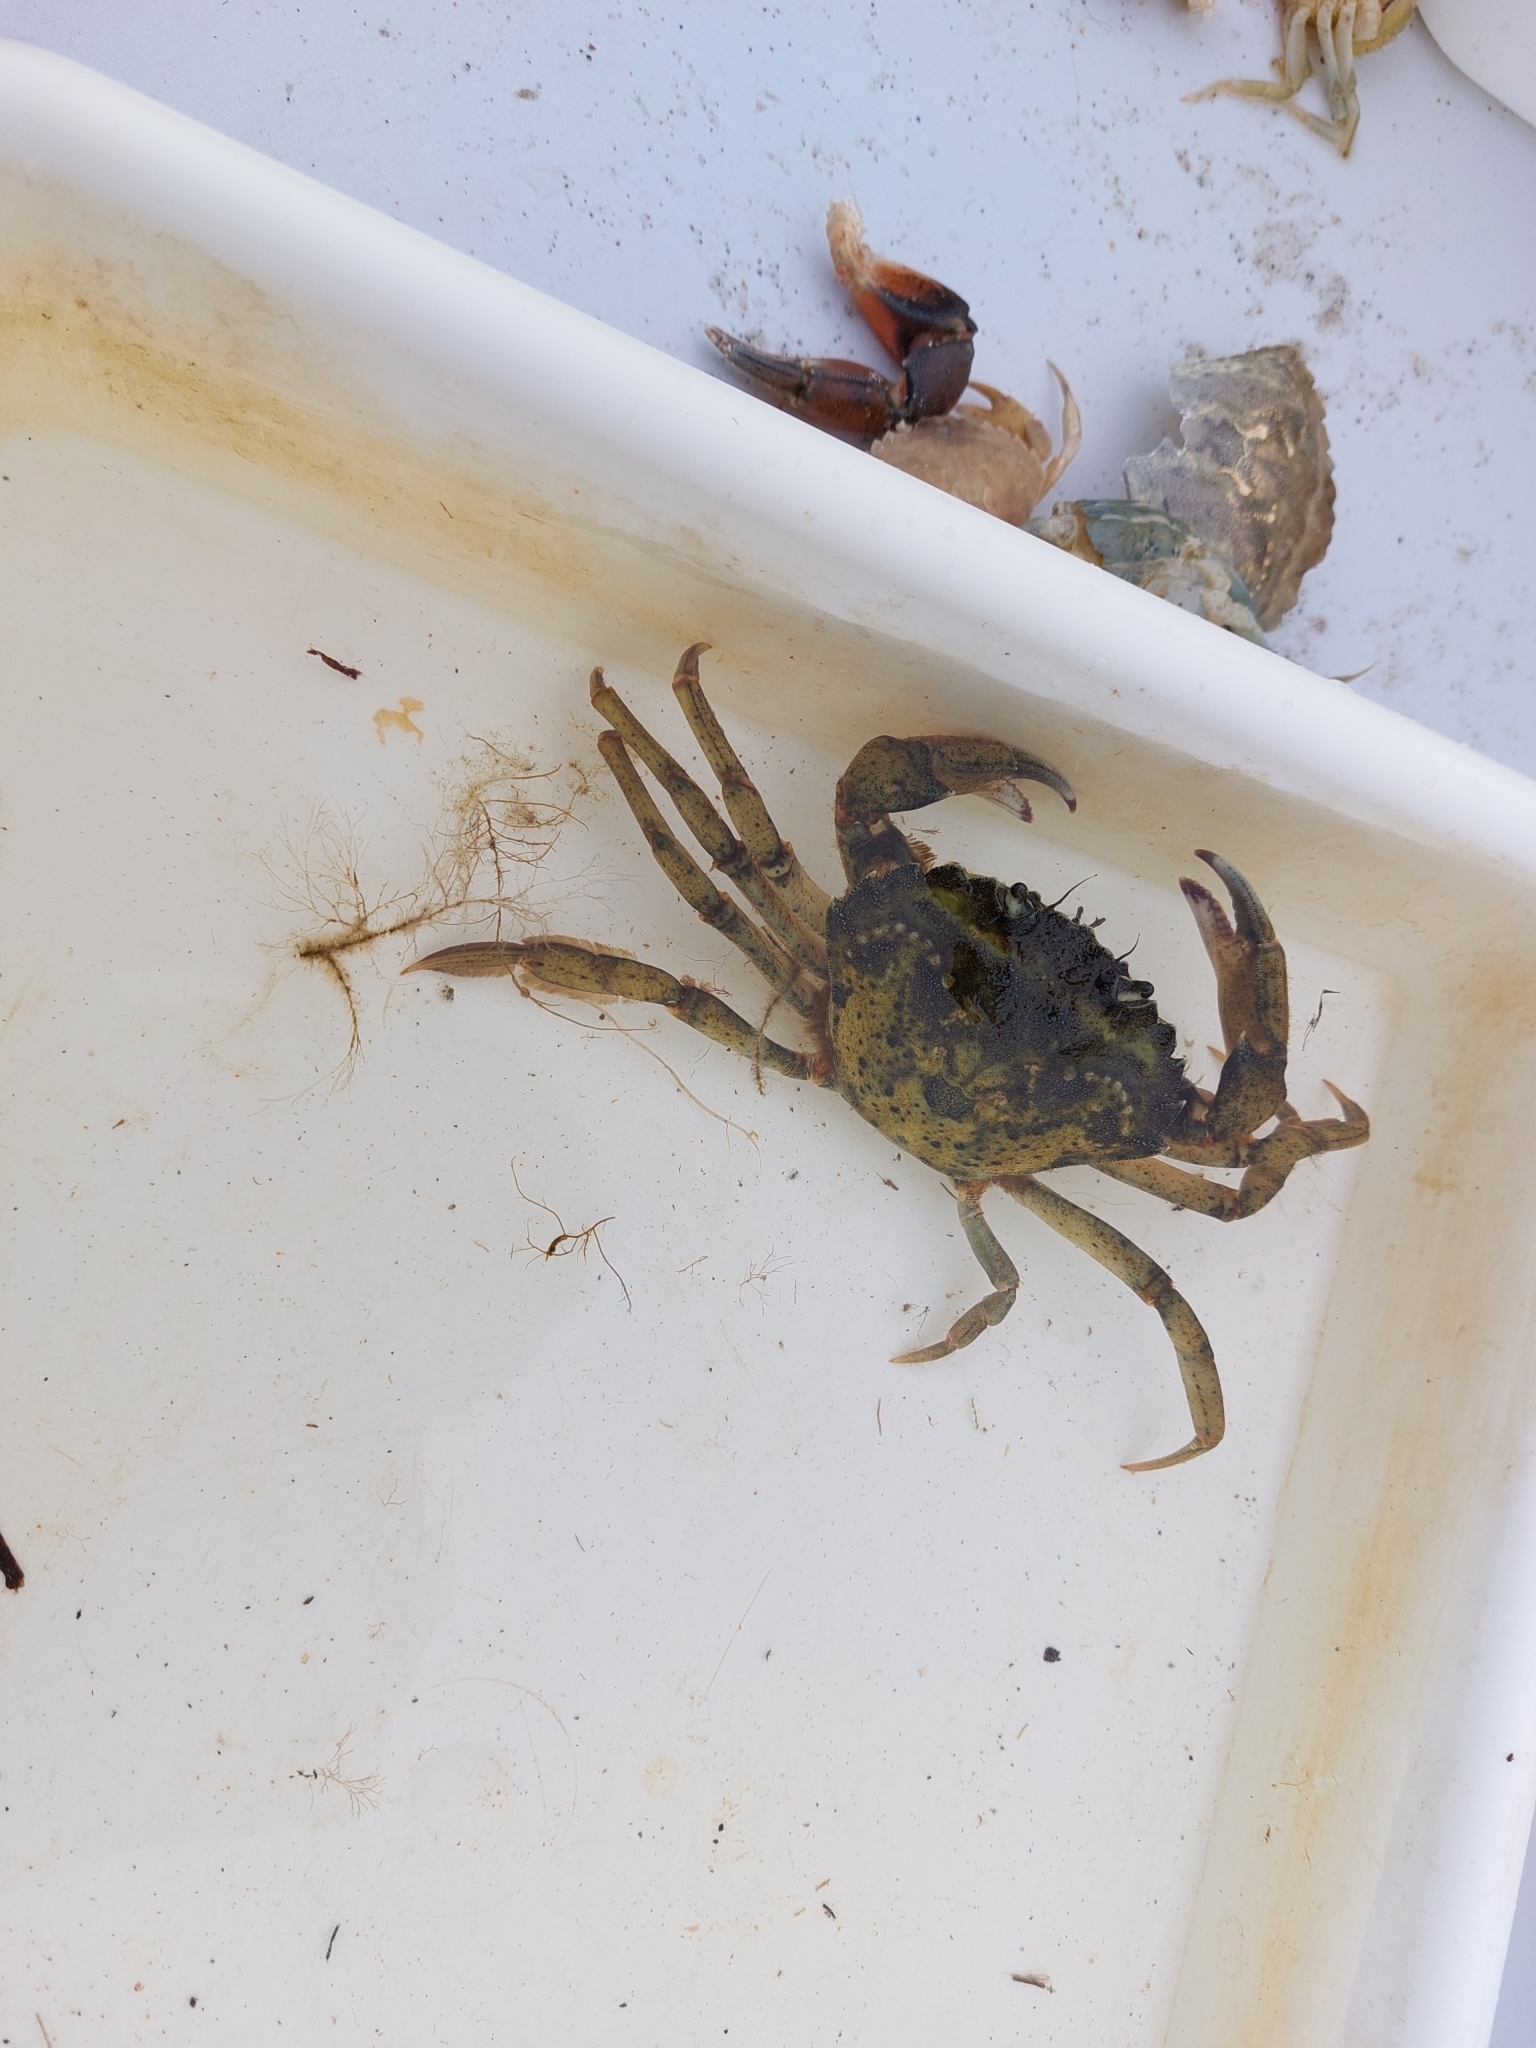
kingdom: Animalia
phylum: Arthropoda
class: Malacostraca
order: Decapoda
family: Carcinidae
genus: Carcinus
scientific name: Carcinus maenas
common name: European green crab
